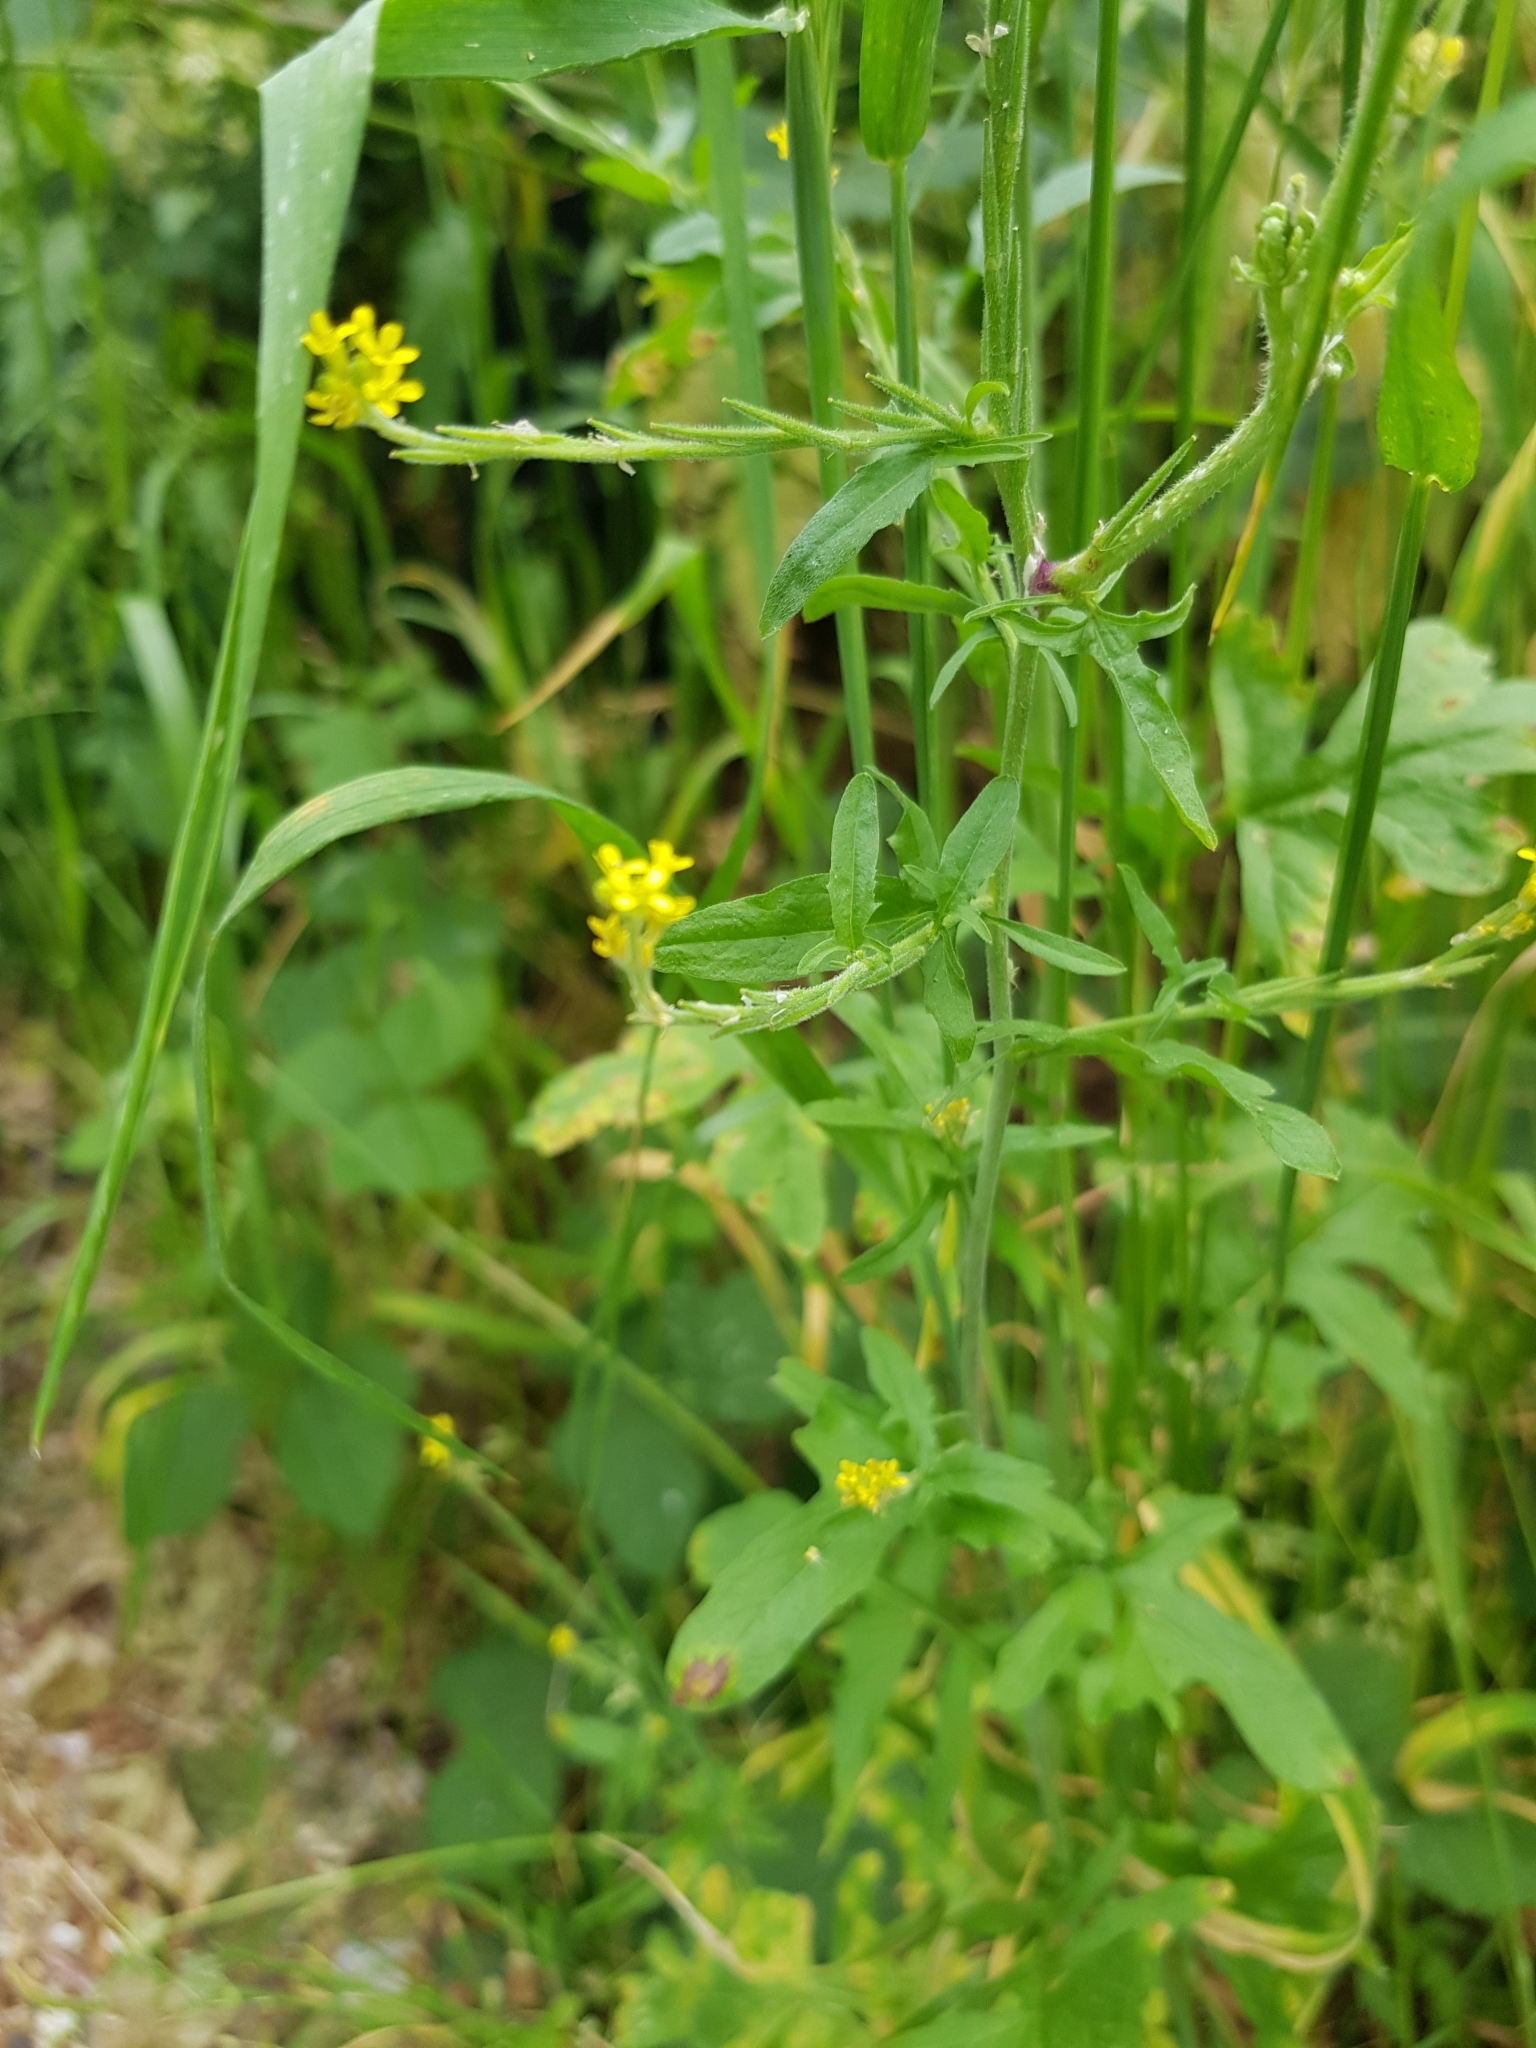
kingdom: Plantae
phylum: Tracheophyta
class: Magnoliopsida
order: Brassicales
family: Brassicaceae
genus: Sisymbrium
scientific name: Sisymbrium officinale
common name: Hedge mustard
